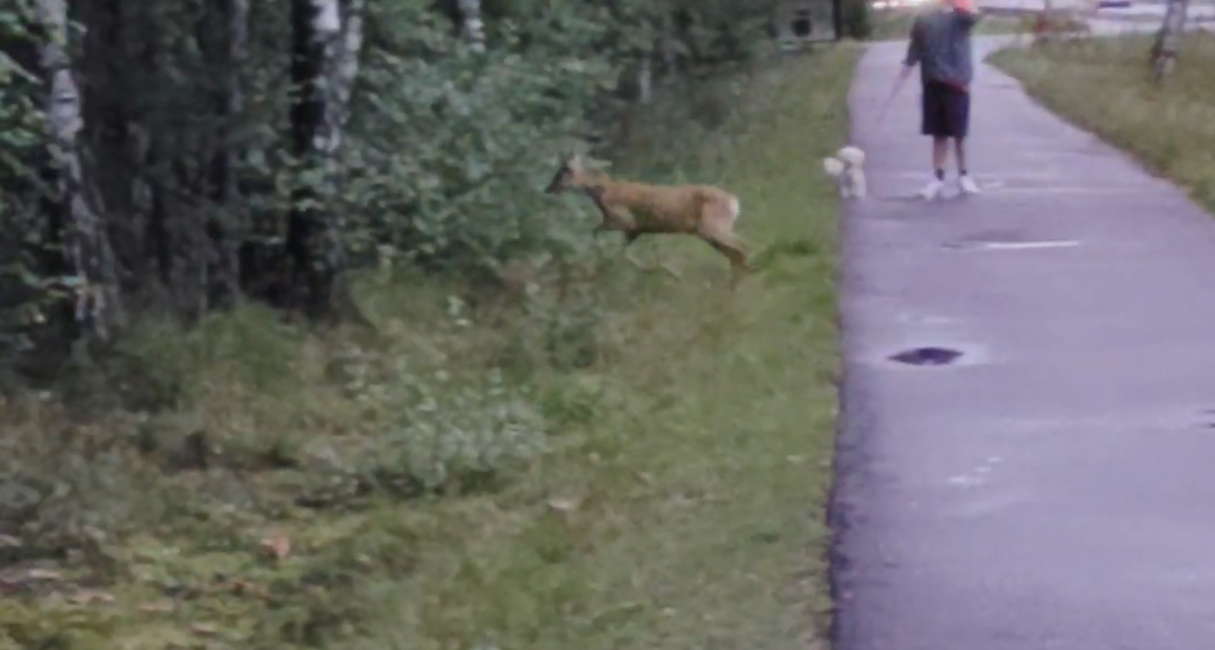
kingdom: Animalia
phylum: Chordata
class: Mammalia
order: Artiodactyla
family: Cervidae
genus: Capreolus
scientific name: Capreolus capreolus
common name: Western roe deer
